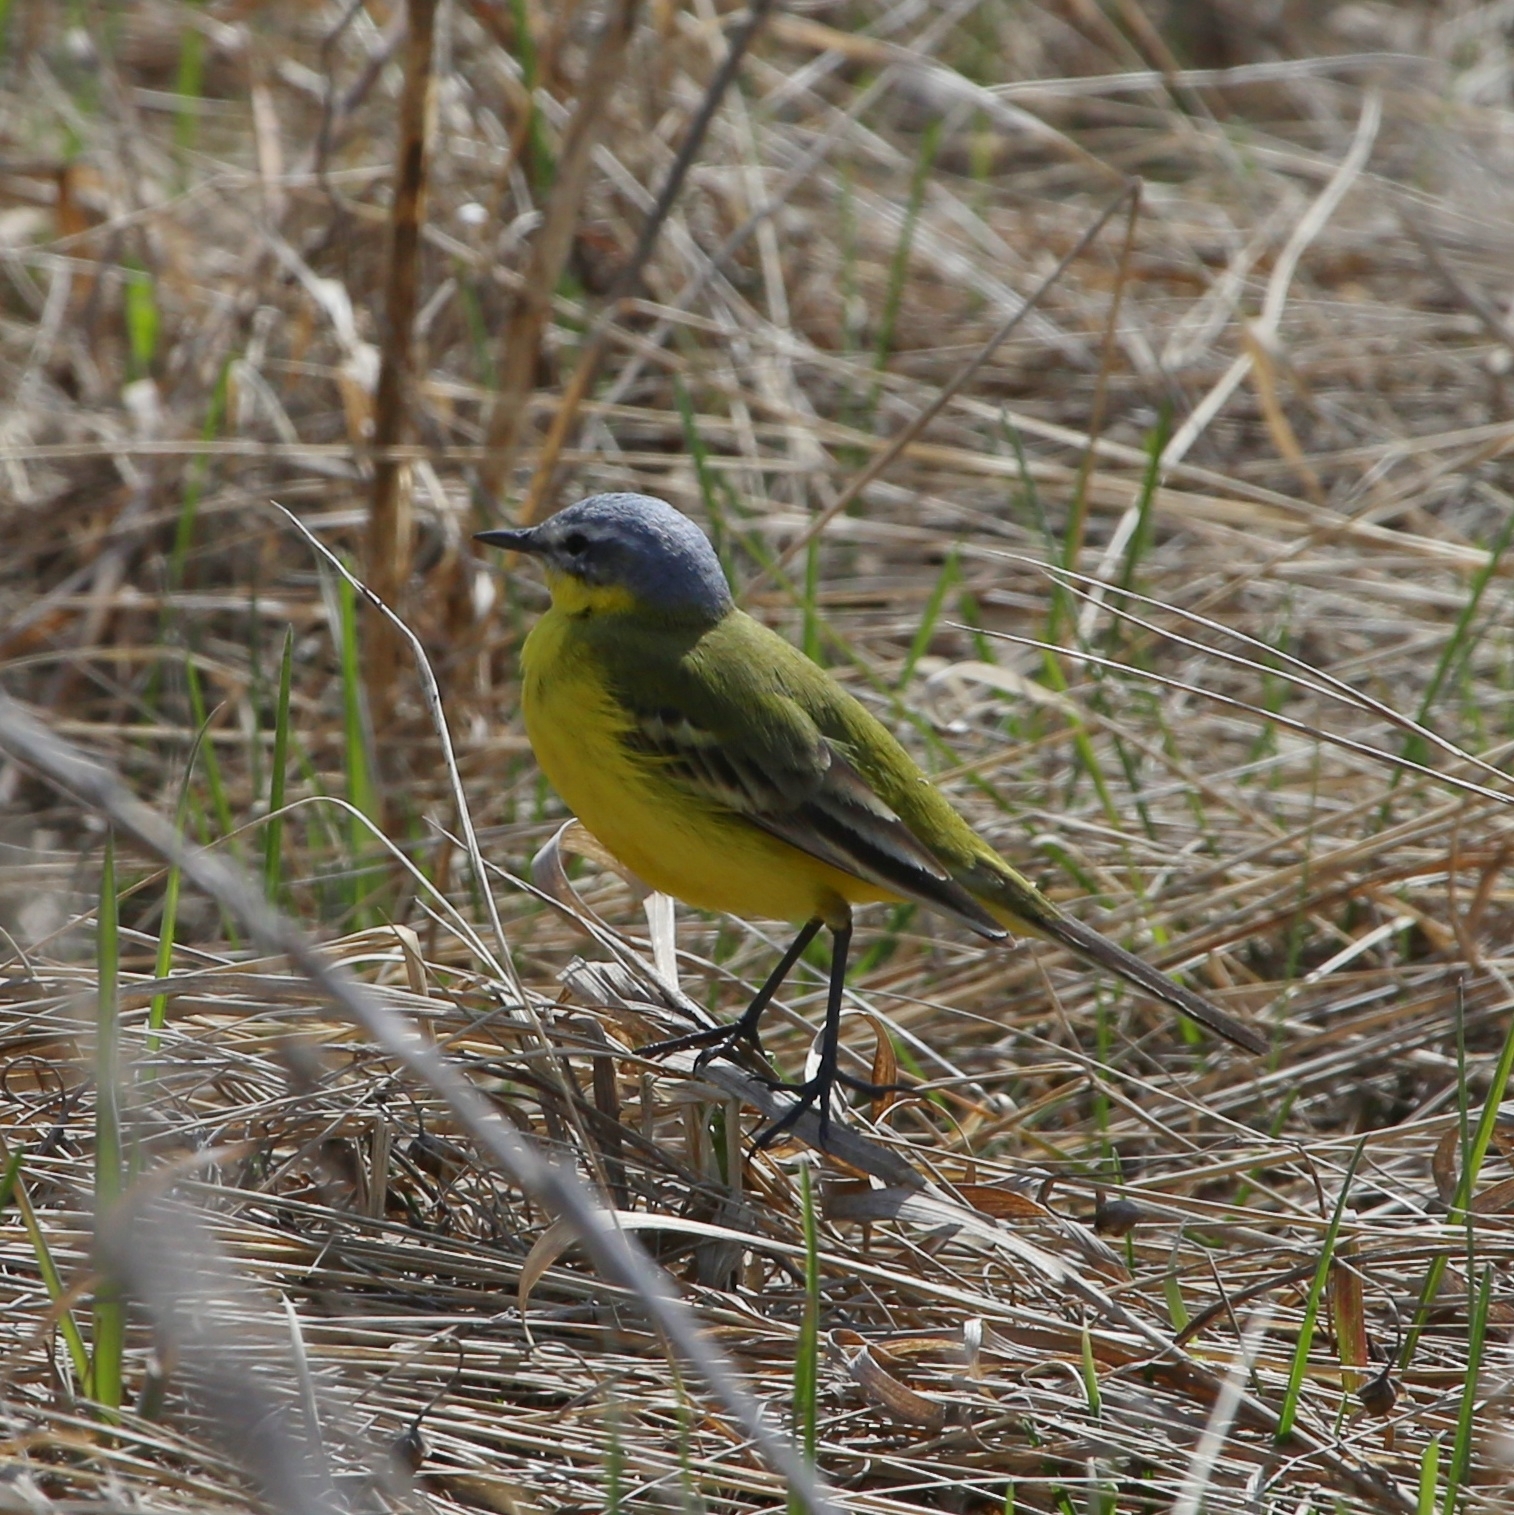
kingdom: Animalia
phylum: Chordata
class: Aves
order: Passeriformes
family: Motacillidae
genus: Motacilla
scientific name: Motacilla flava
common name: Western yellow wagtail
